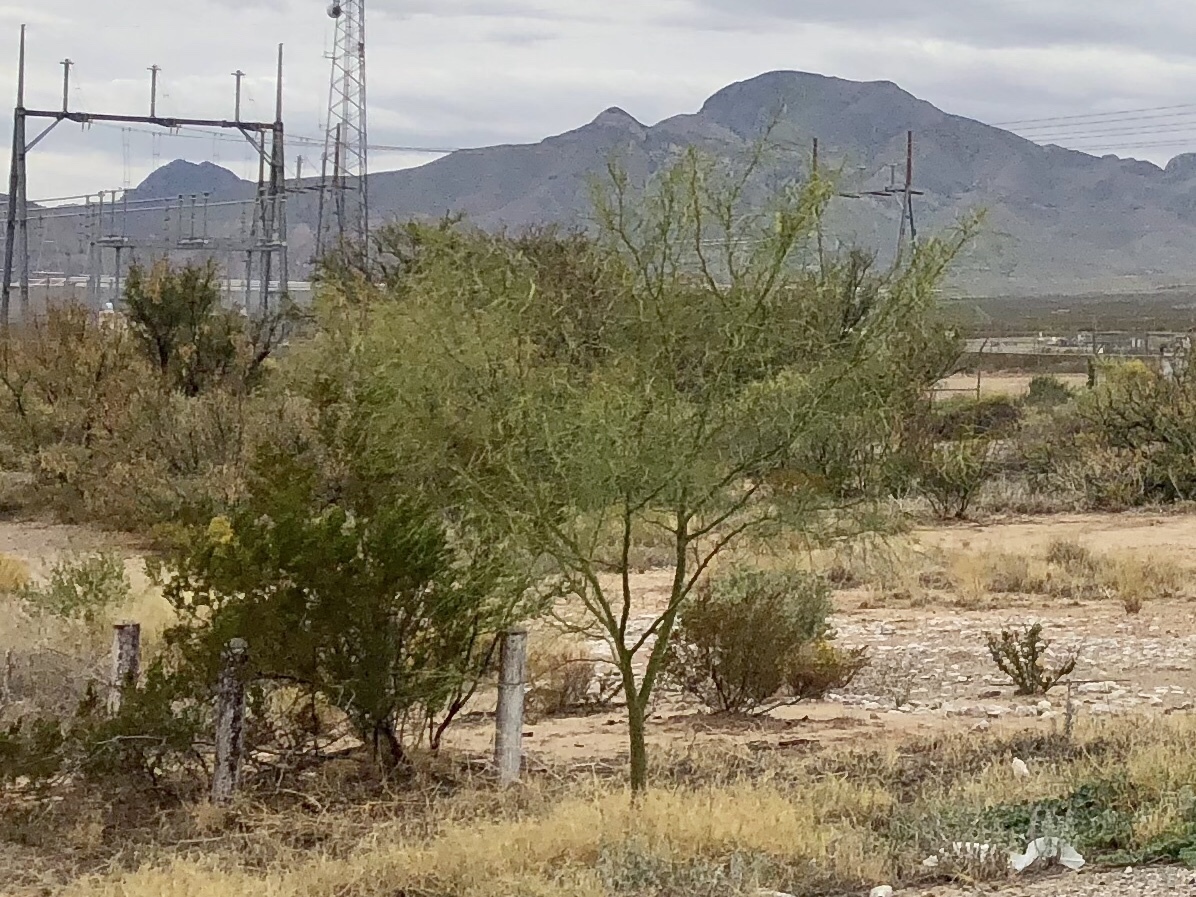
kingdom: Plantae
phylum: Tracheophyta
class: Magnoliopsida
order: Fabales
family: Fabaceae
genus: Parkinsonia
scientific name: Parkinsonia aculeata
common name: Jerusalem thorn
